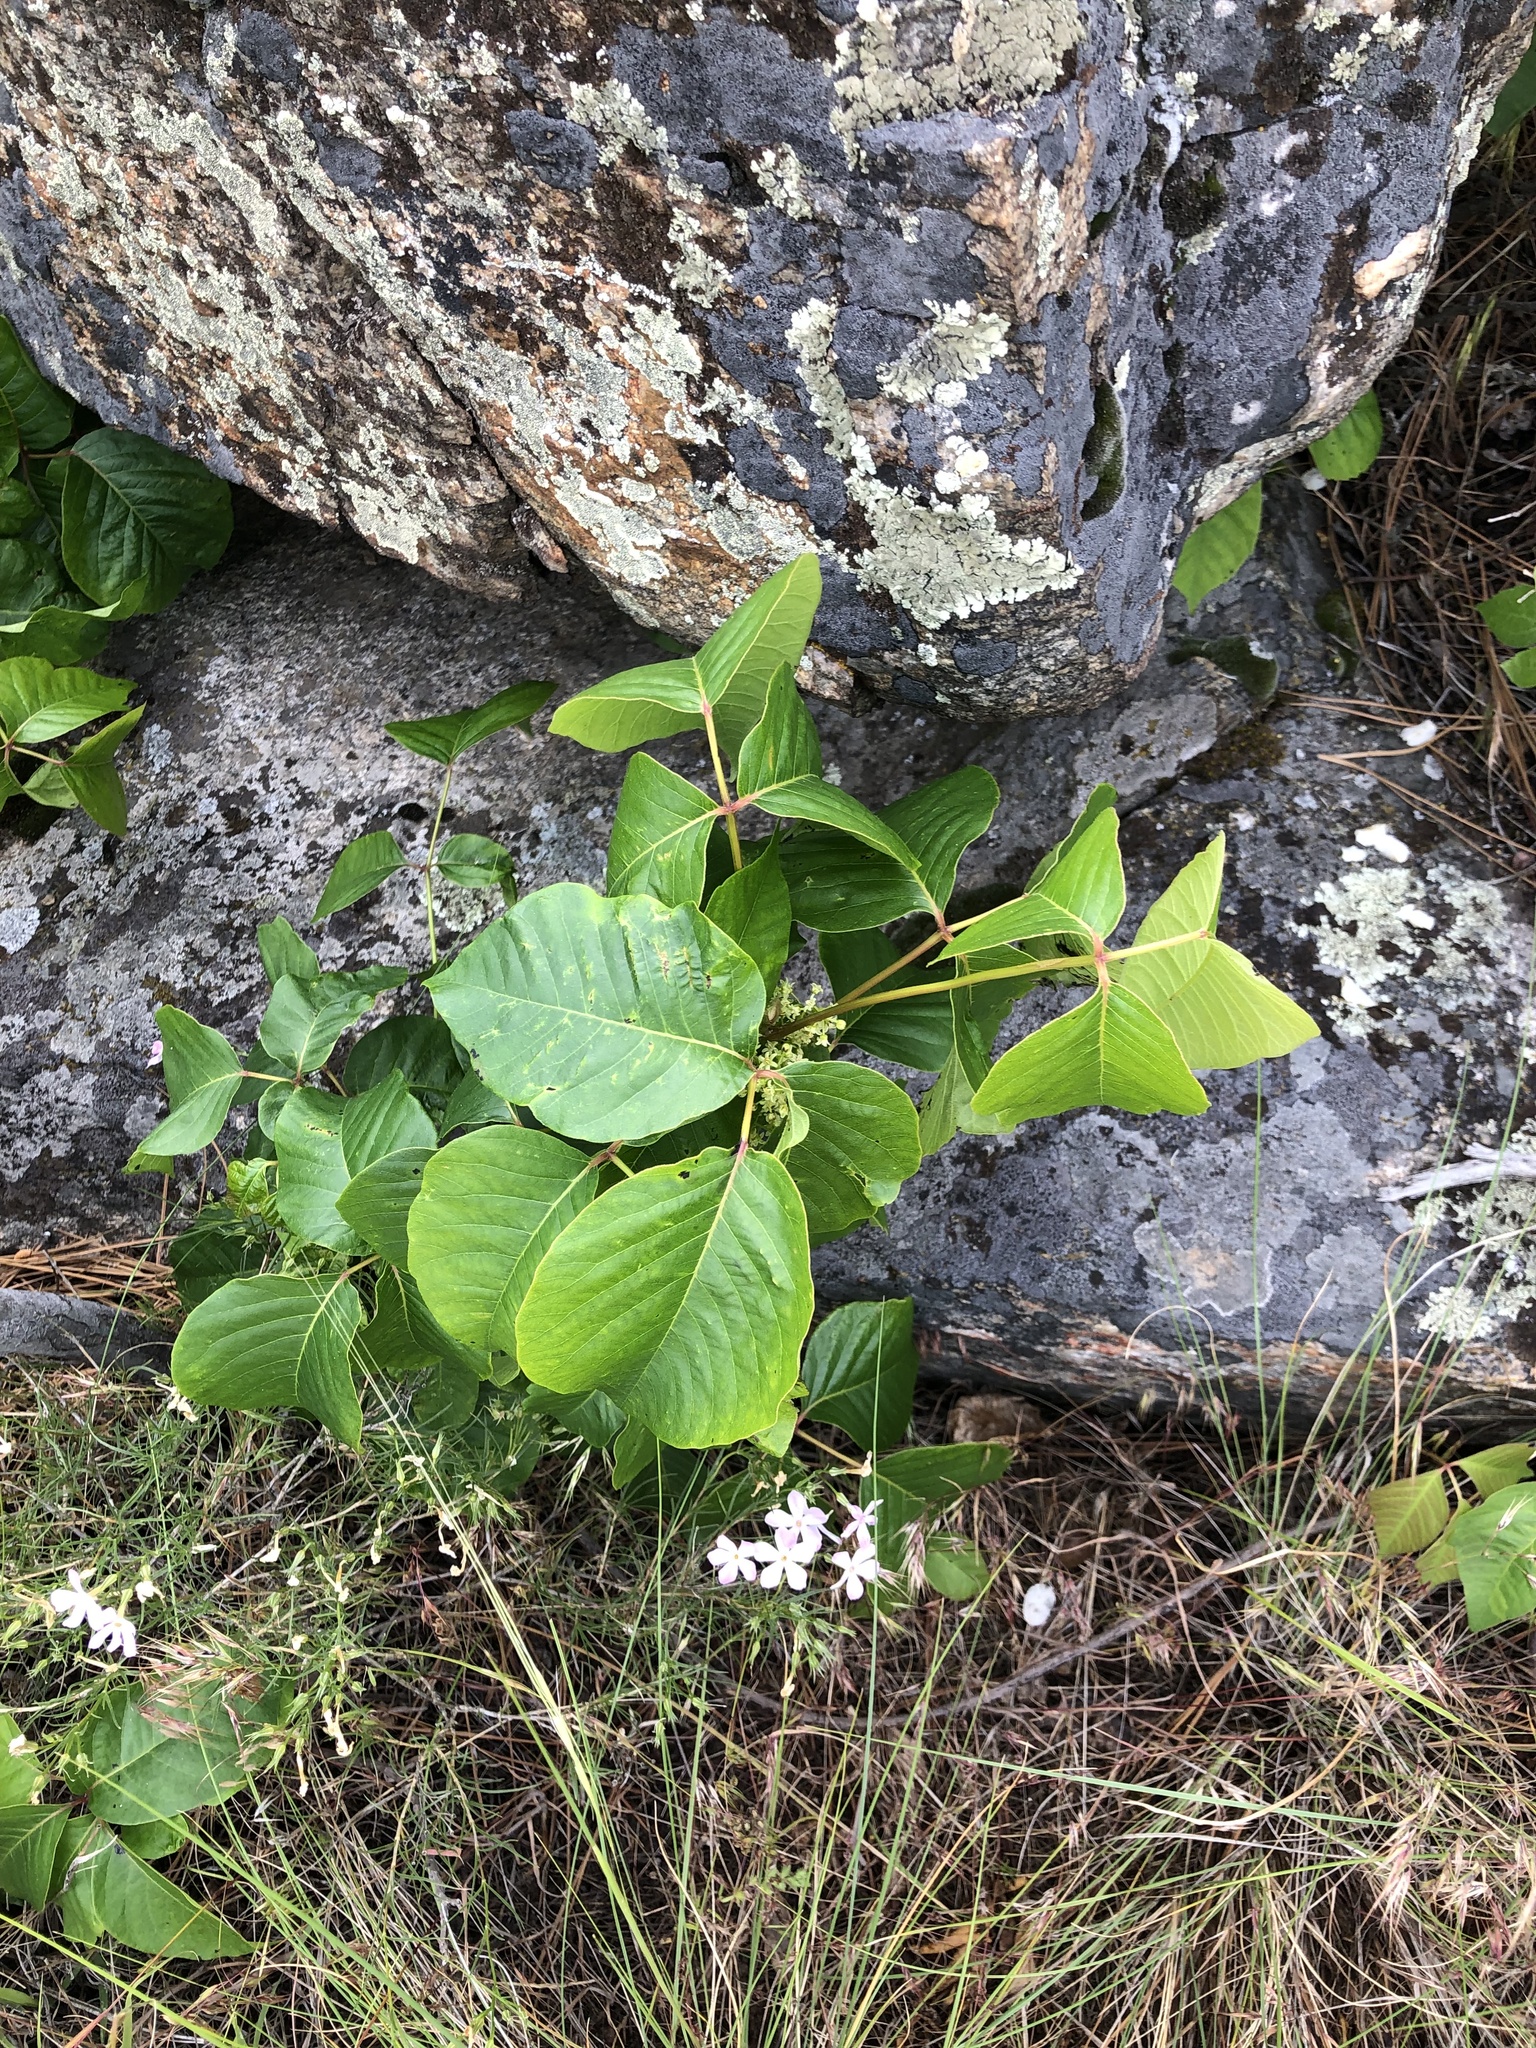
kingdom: Plantae
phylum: Tracheophyta
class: Magnoliopsida
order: Sapindales
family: Anacardiaceae
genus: Toxicodendron
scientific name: Toxicodendron rydbergii
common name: Rydberg's poison-ivy
